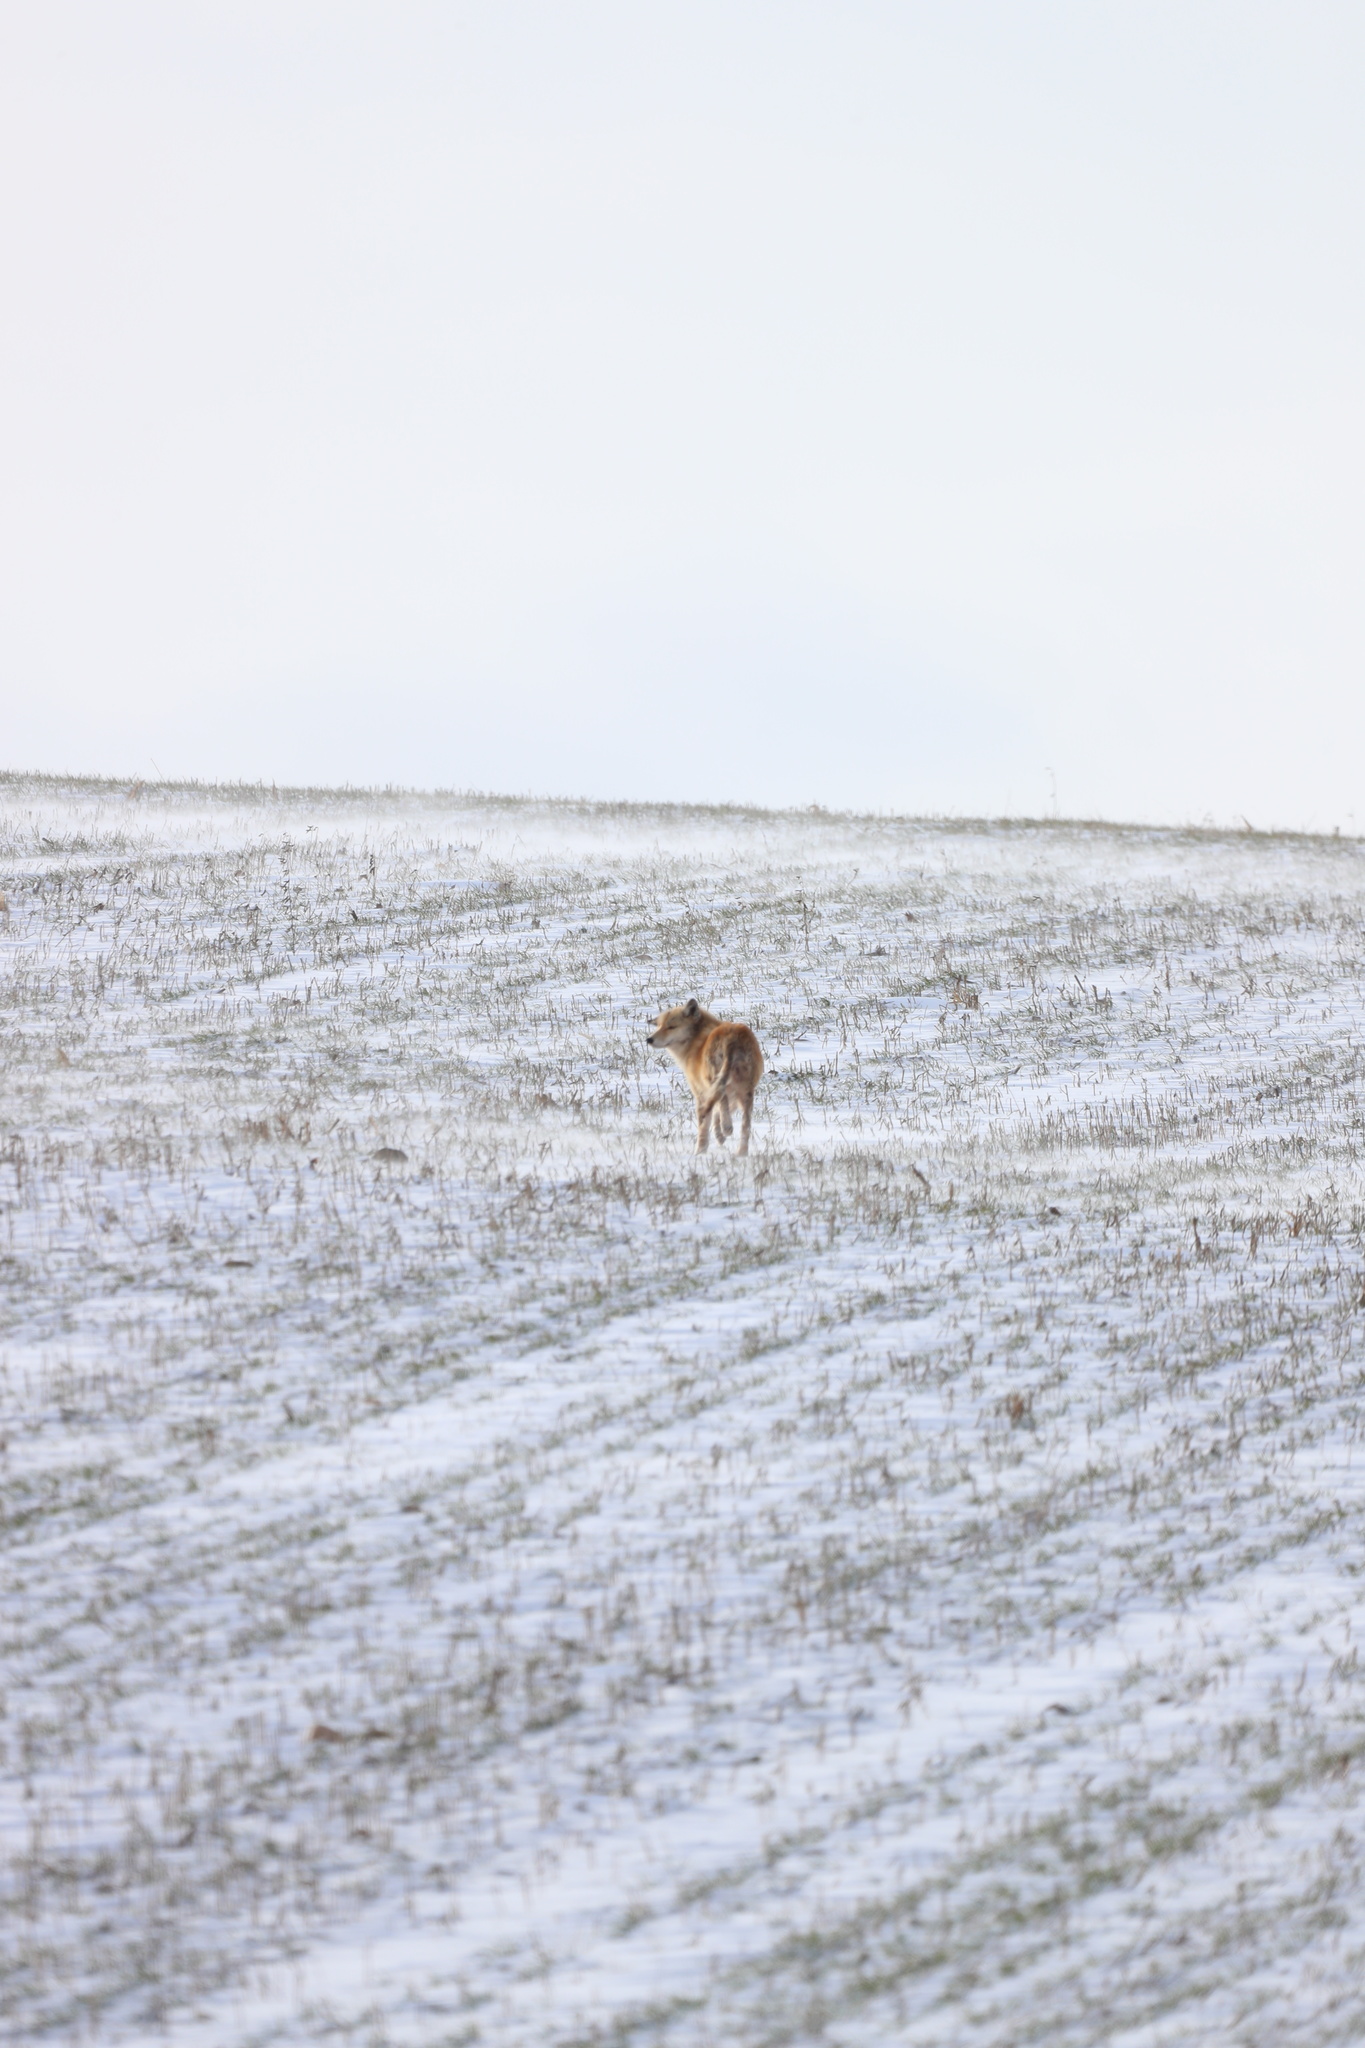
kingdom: Animalia
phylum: Chordata
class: Mammalia
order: Carnivora
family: Canidae
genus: Canis
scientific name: Canis latrans
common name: Coyote
